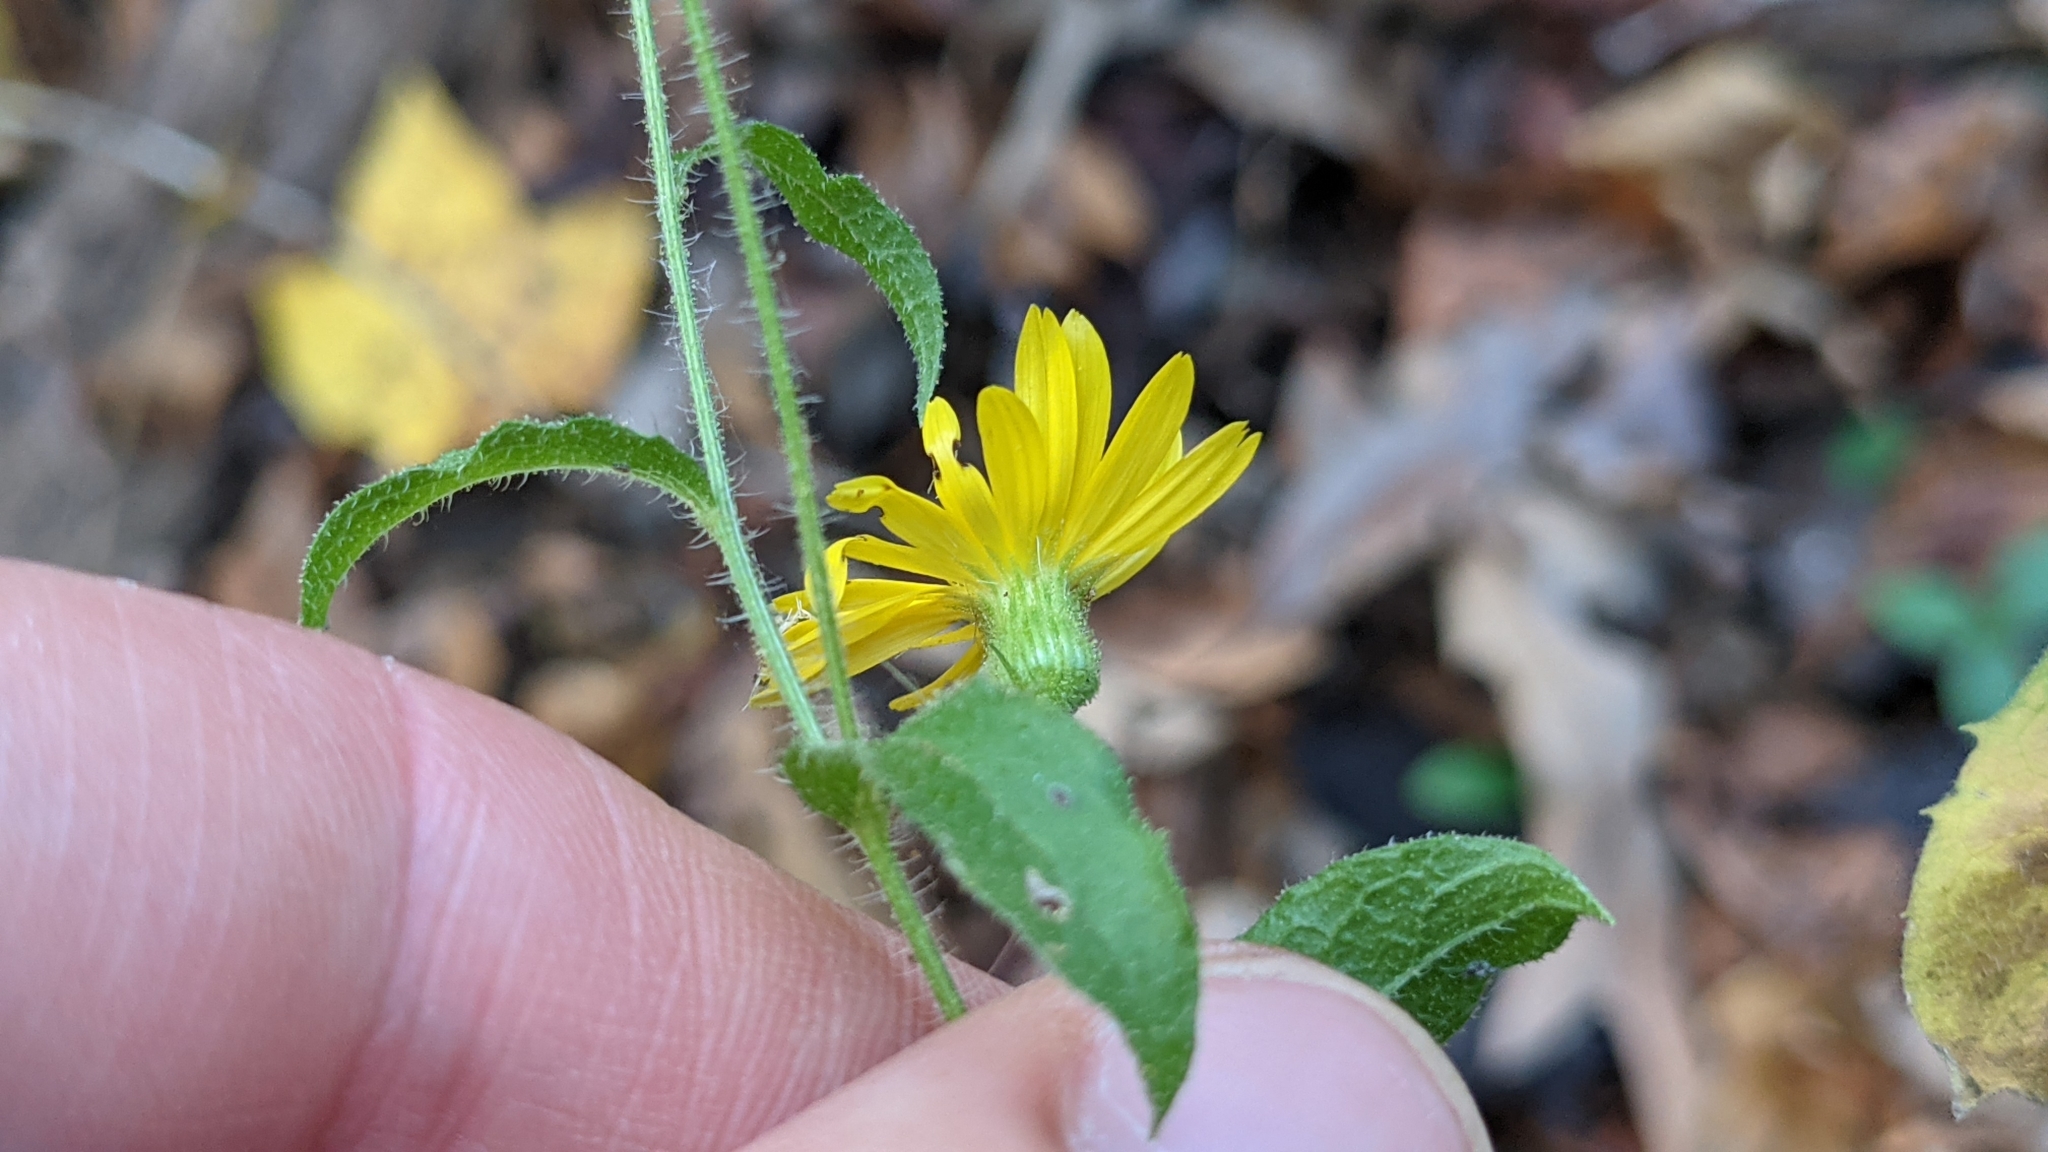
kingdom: Plantae
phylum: Tracheophyta
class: Magnoliopsida
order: Asterales
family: Asteraceae
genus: Heterotheca
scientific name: Heterotheca subaxillaris
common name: Camphorweed
